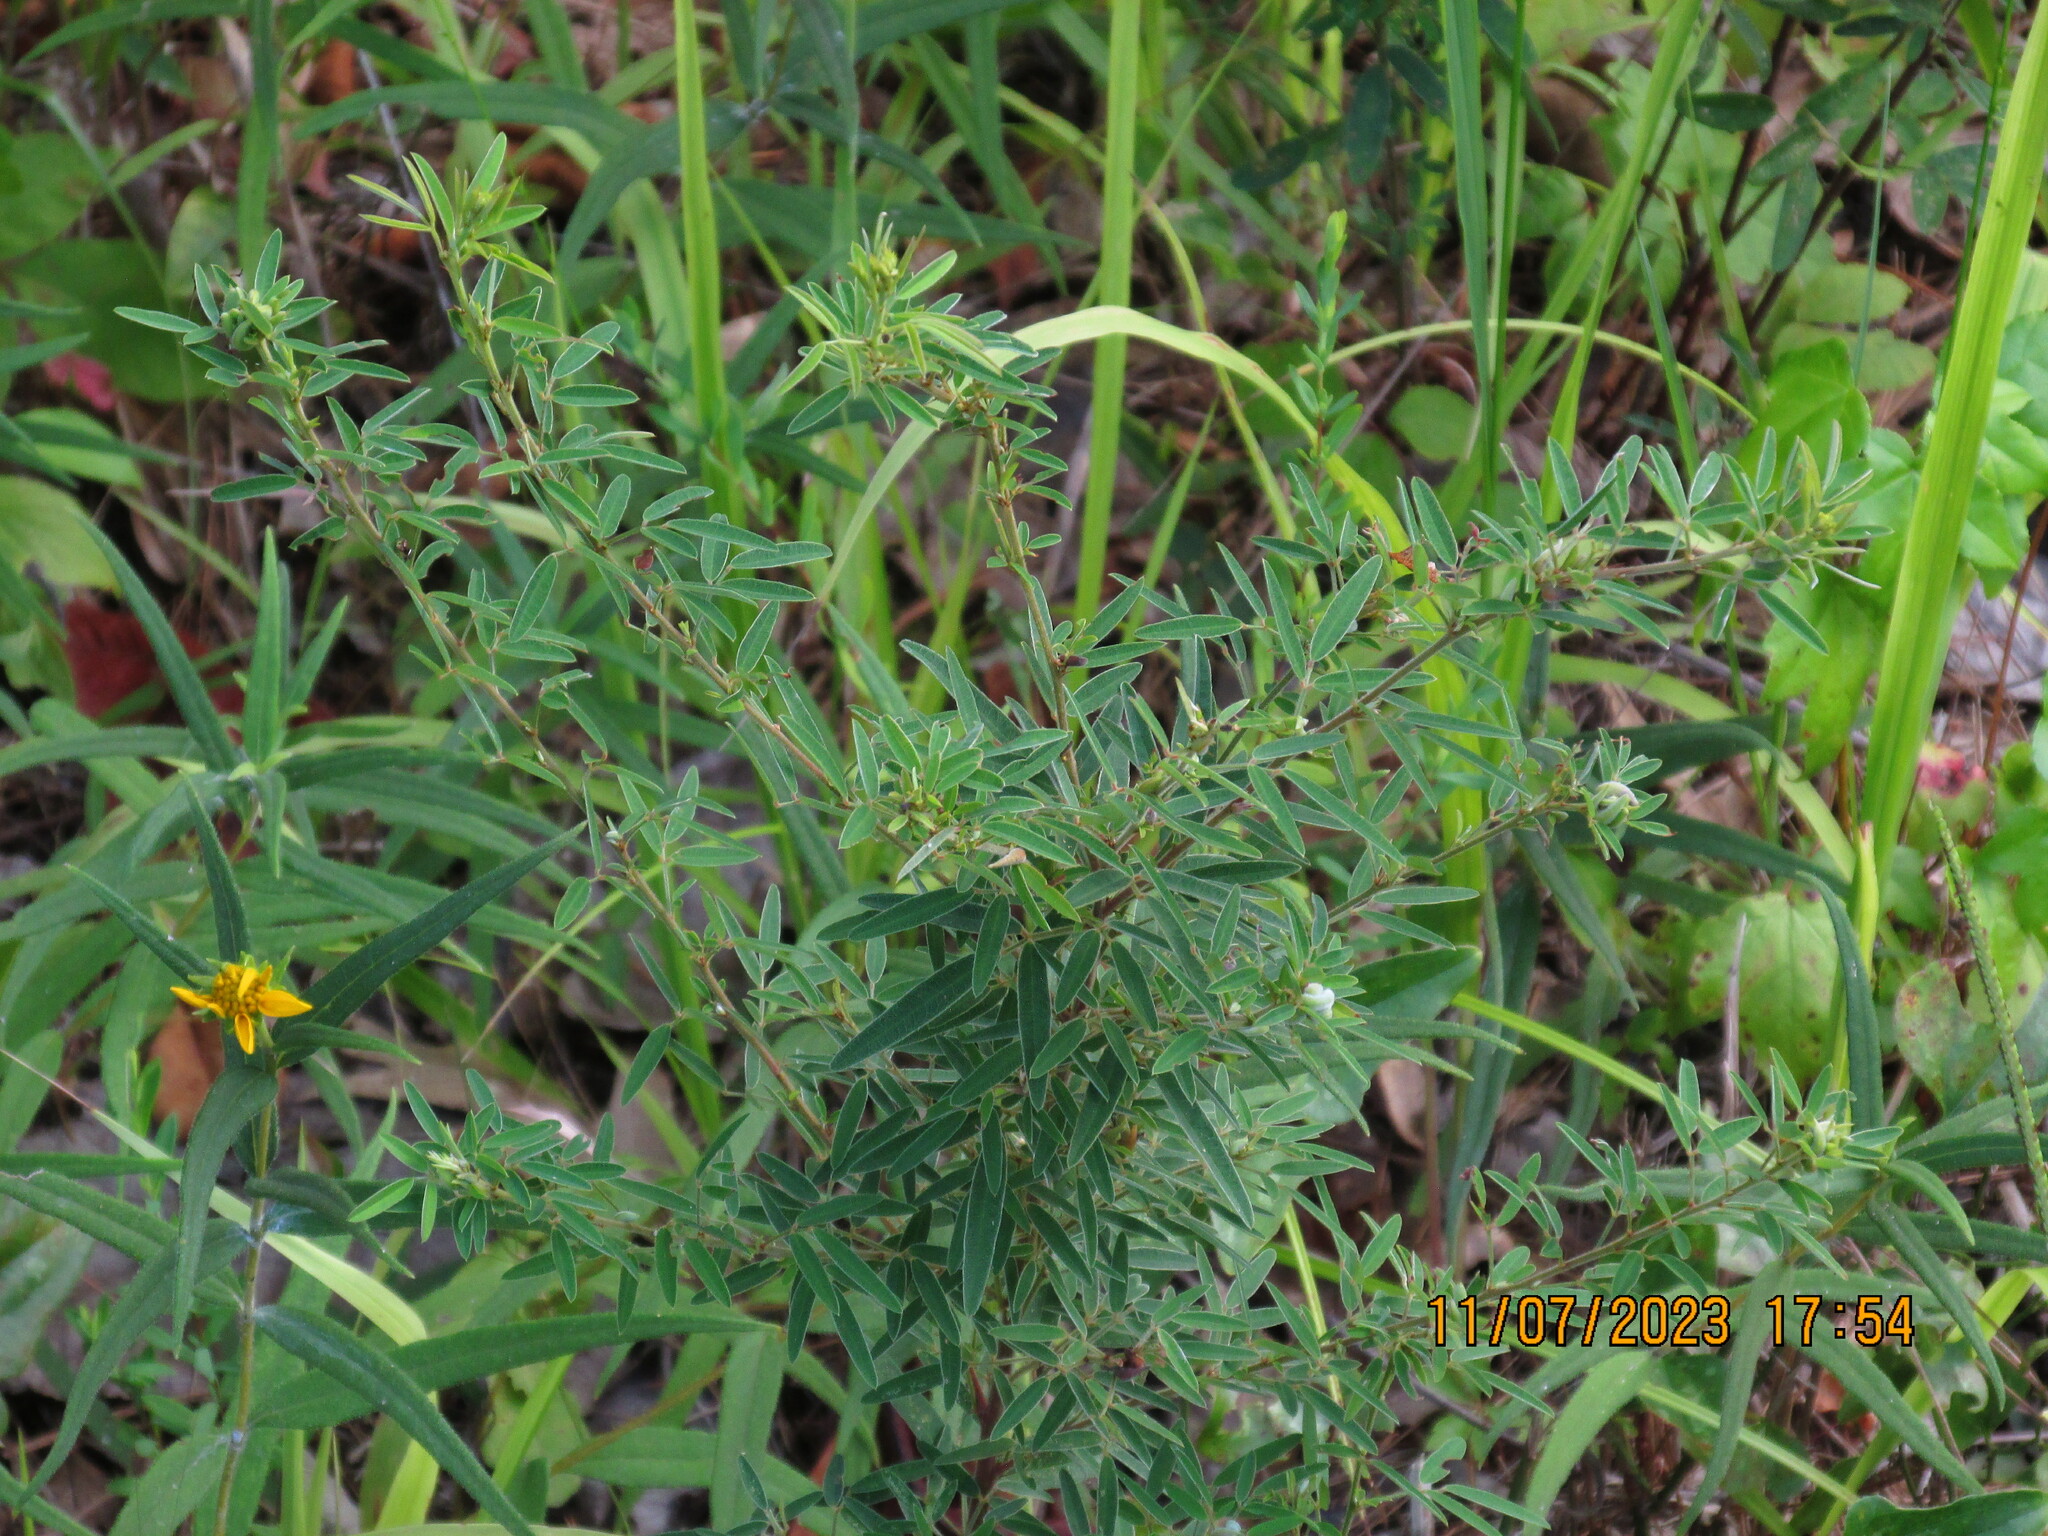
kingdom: Plantae
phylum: Tracheophyta
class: Magnoliopsida
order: Fabales
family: Fabaceae
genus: Lespedeza
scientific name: Lespedeza virginica
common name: Slender bush-clover
